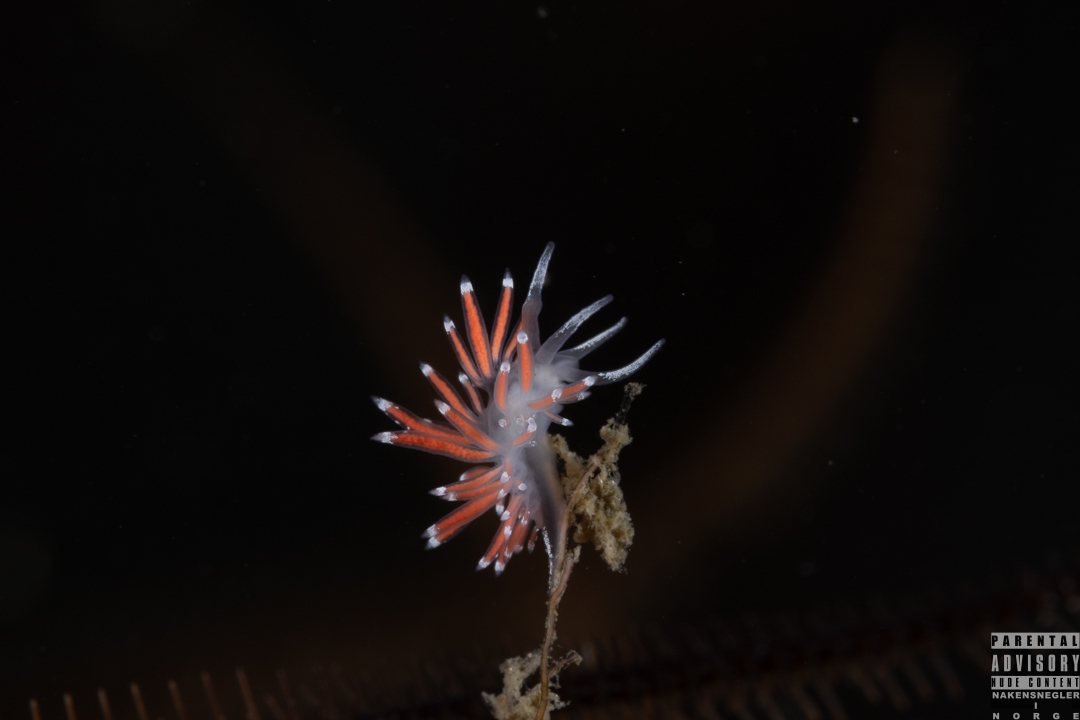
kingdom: Animalia
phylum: Mollusca
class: Gastropoda
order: Nudibranchia
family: Coryphellidae
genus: Coryphella
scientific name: Coryphella gracilis
